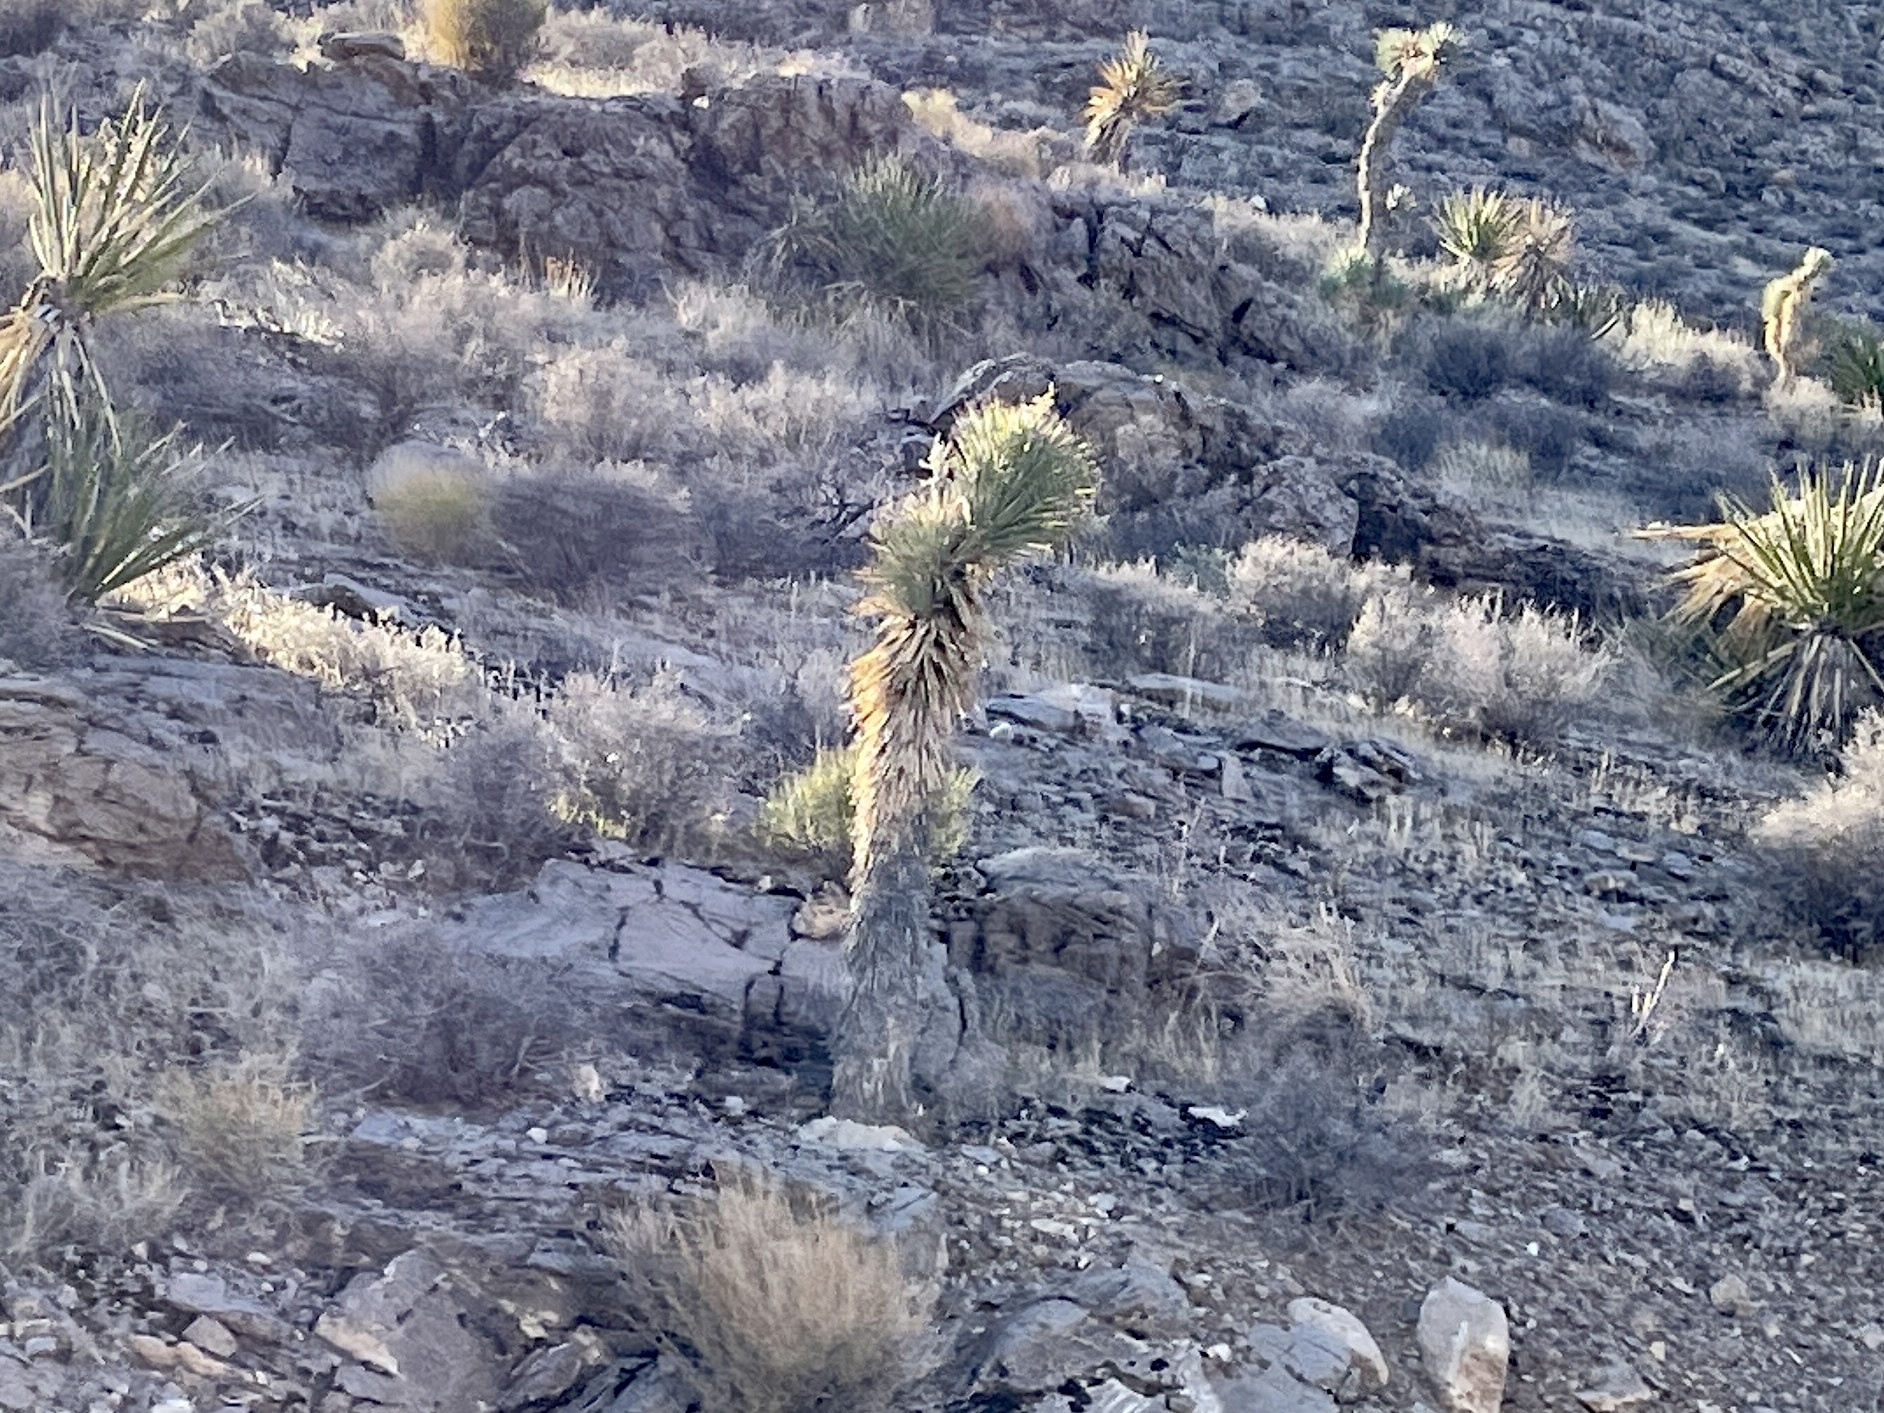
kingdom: Plantae
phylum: Tracheophyta
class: Liliopsida
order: Asparagales
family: Asparagaceae
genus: Yucca
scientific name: Yucca brevifolia
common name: Joshua tree
